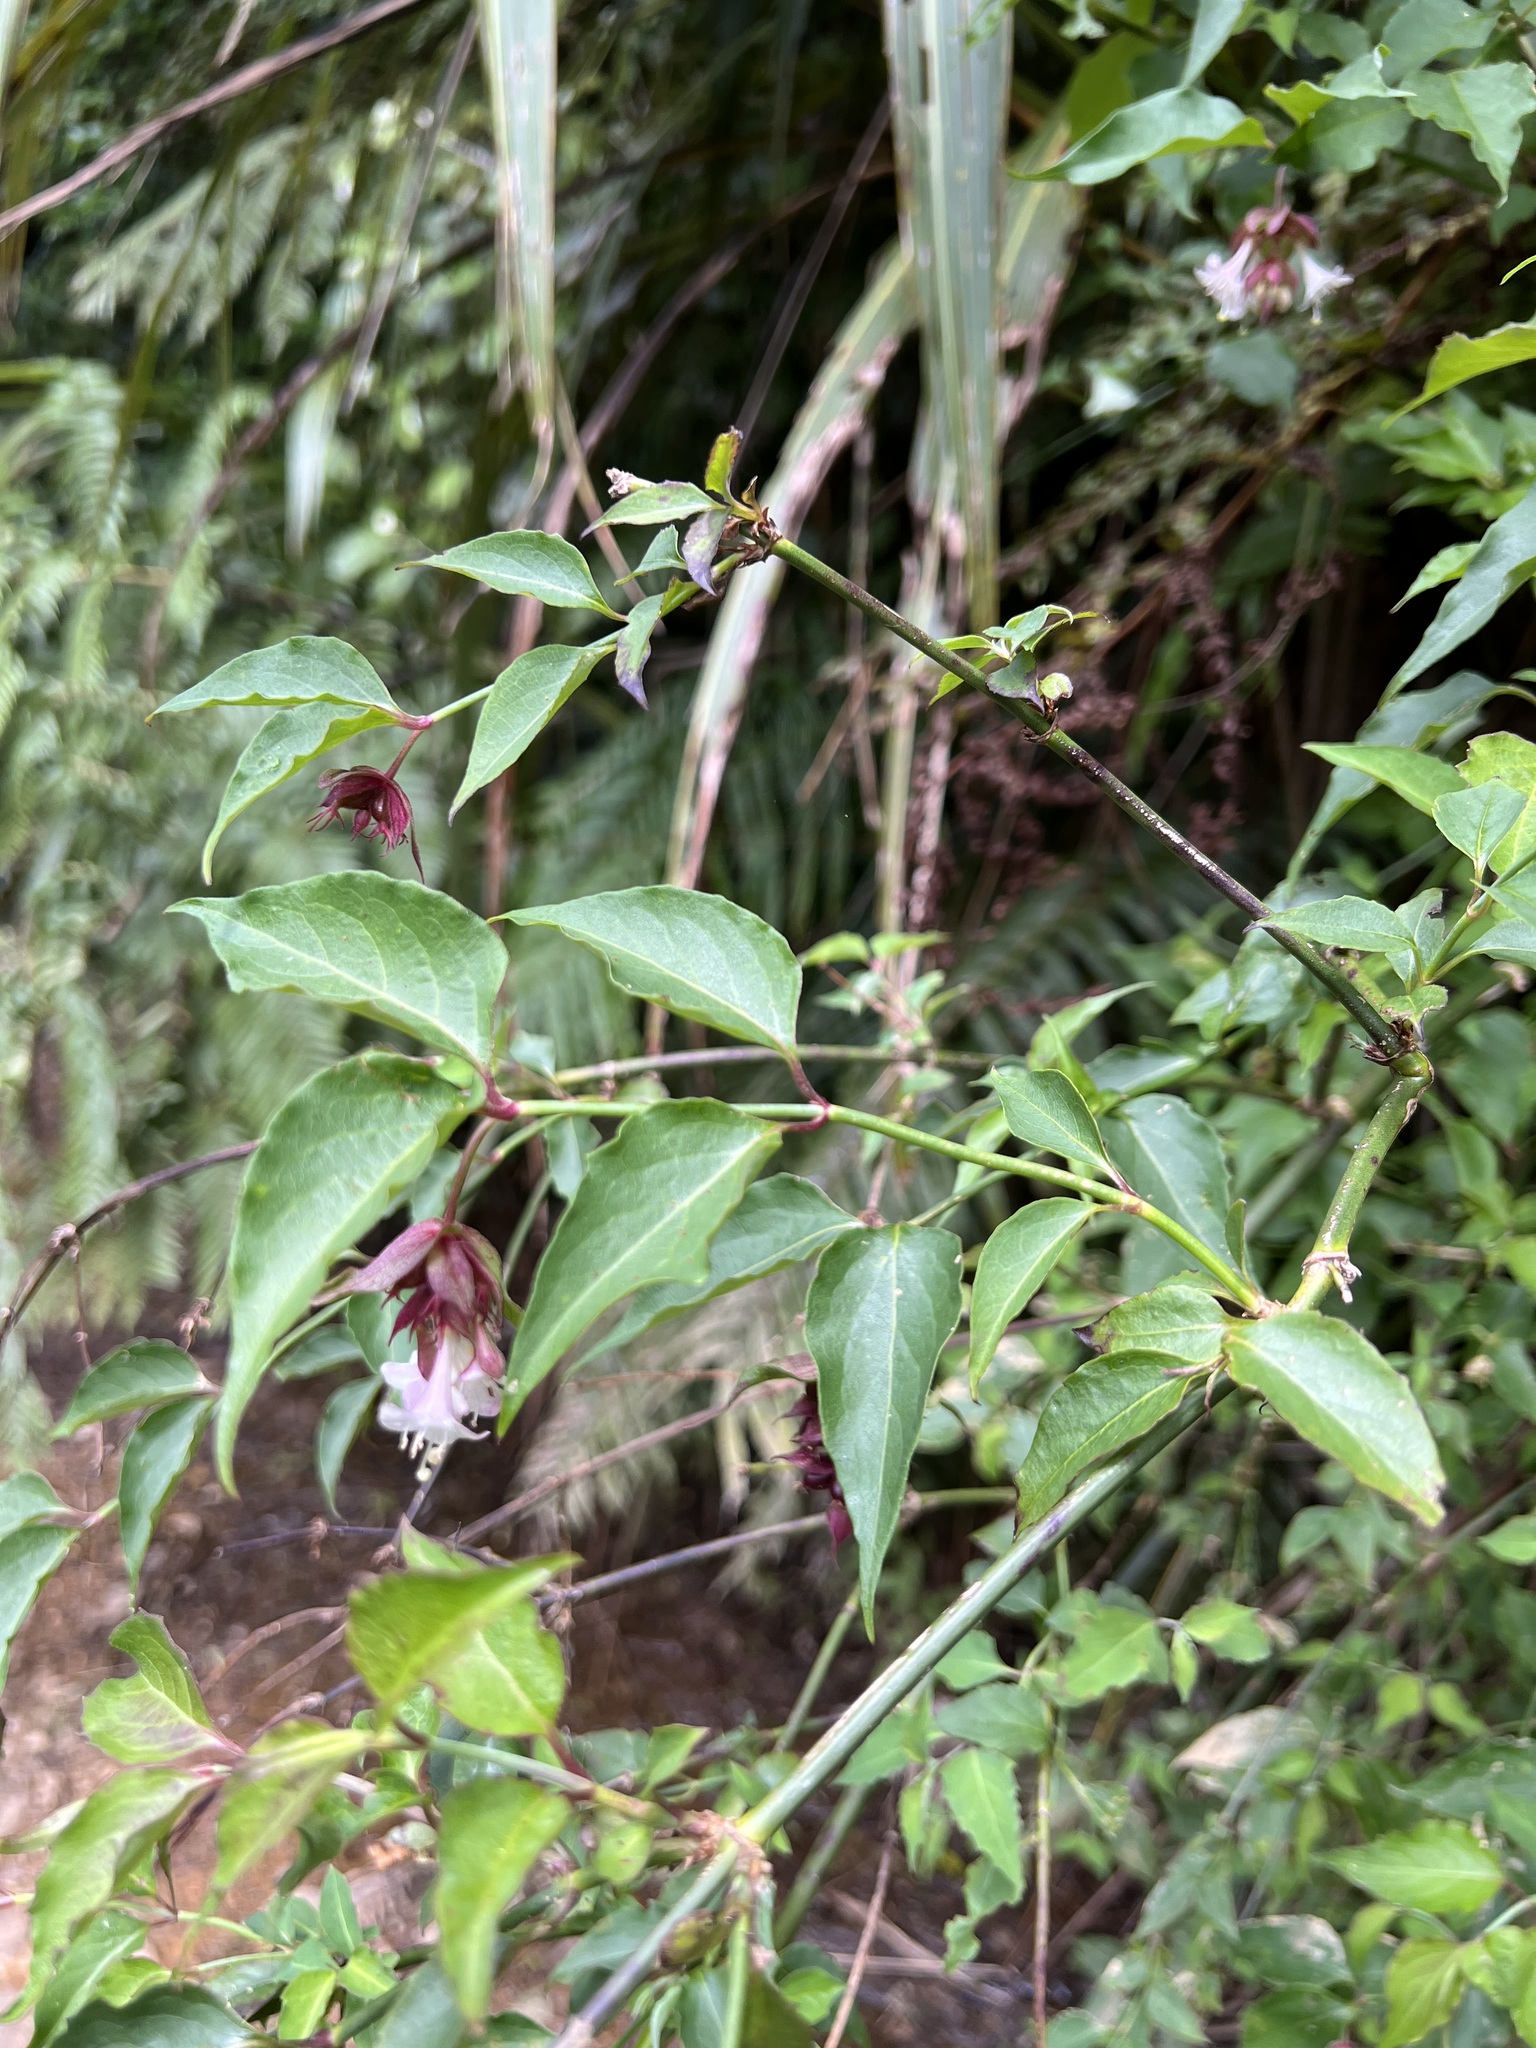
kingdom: Plantae
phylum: Tracheophyta
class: Magnoliopsida
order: Dipsacales
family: Caprifoliaceae
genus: Leycesteria
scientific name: Leycesteria formosa
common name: Himalayan honeysuckle
